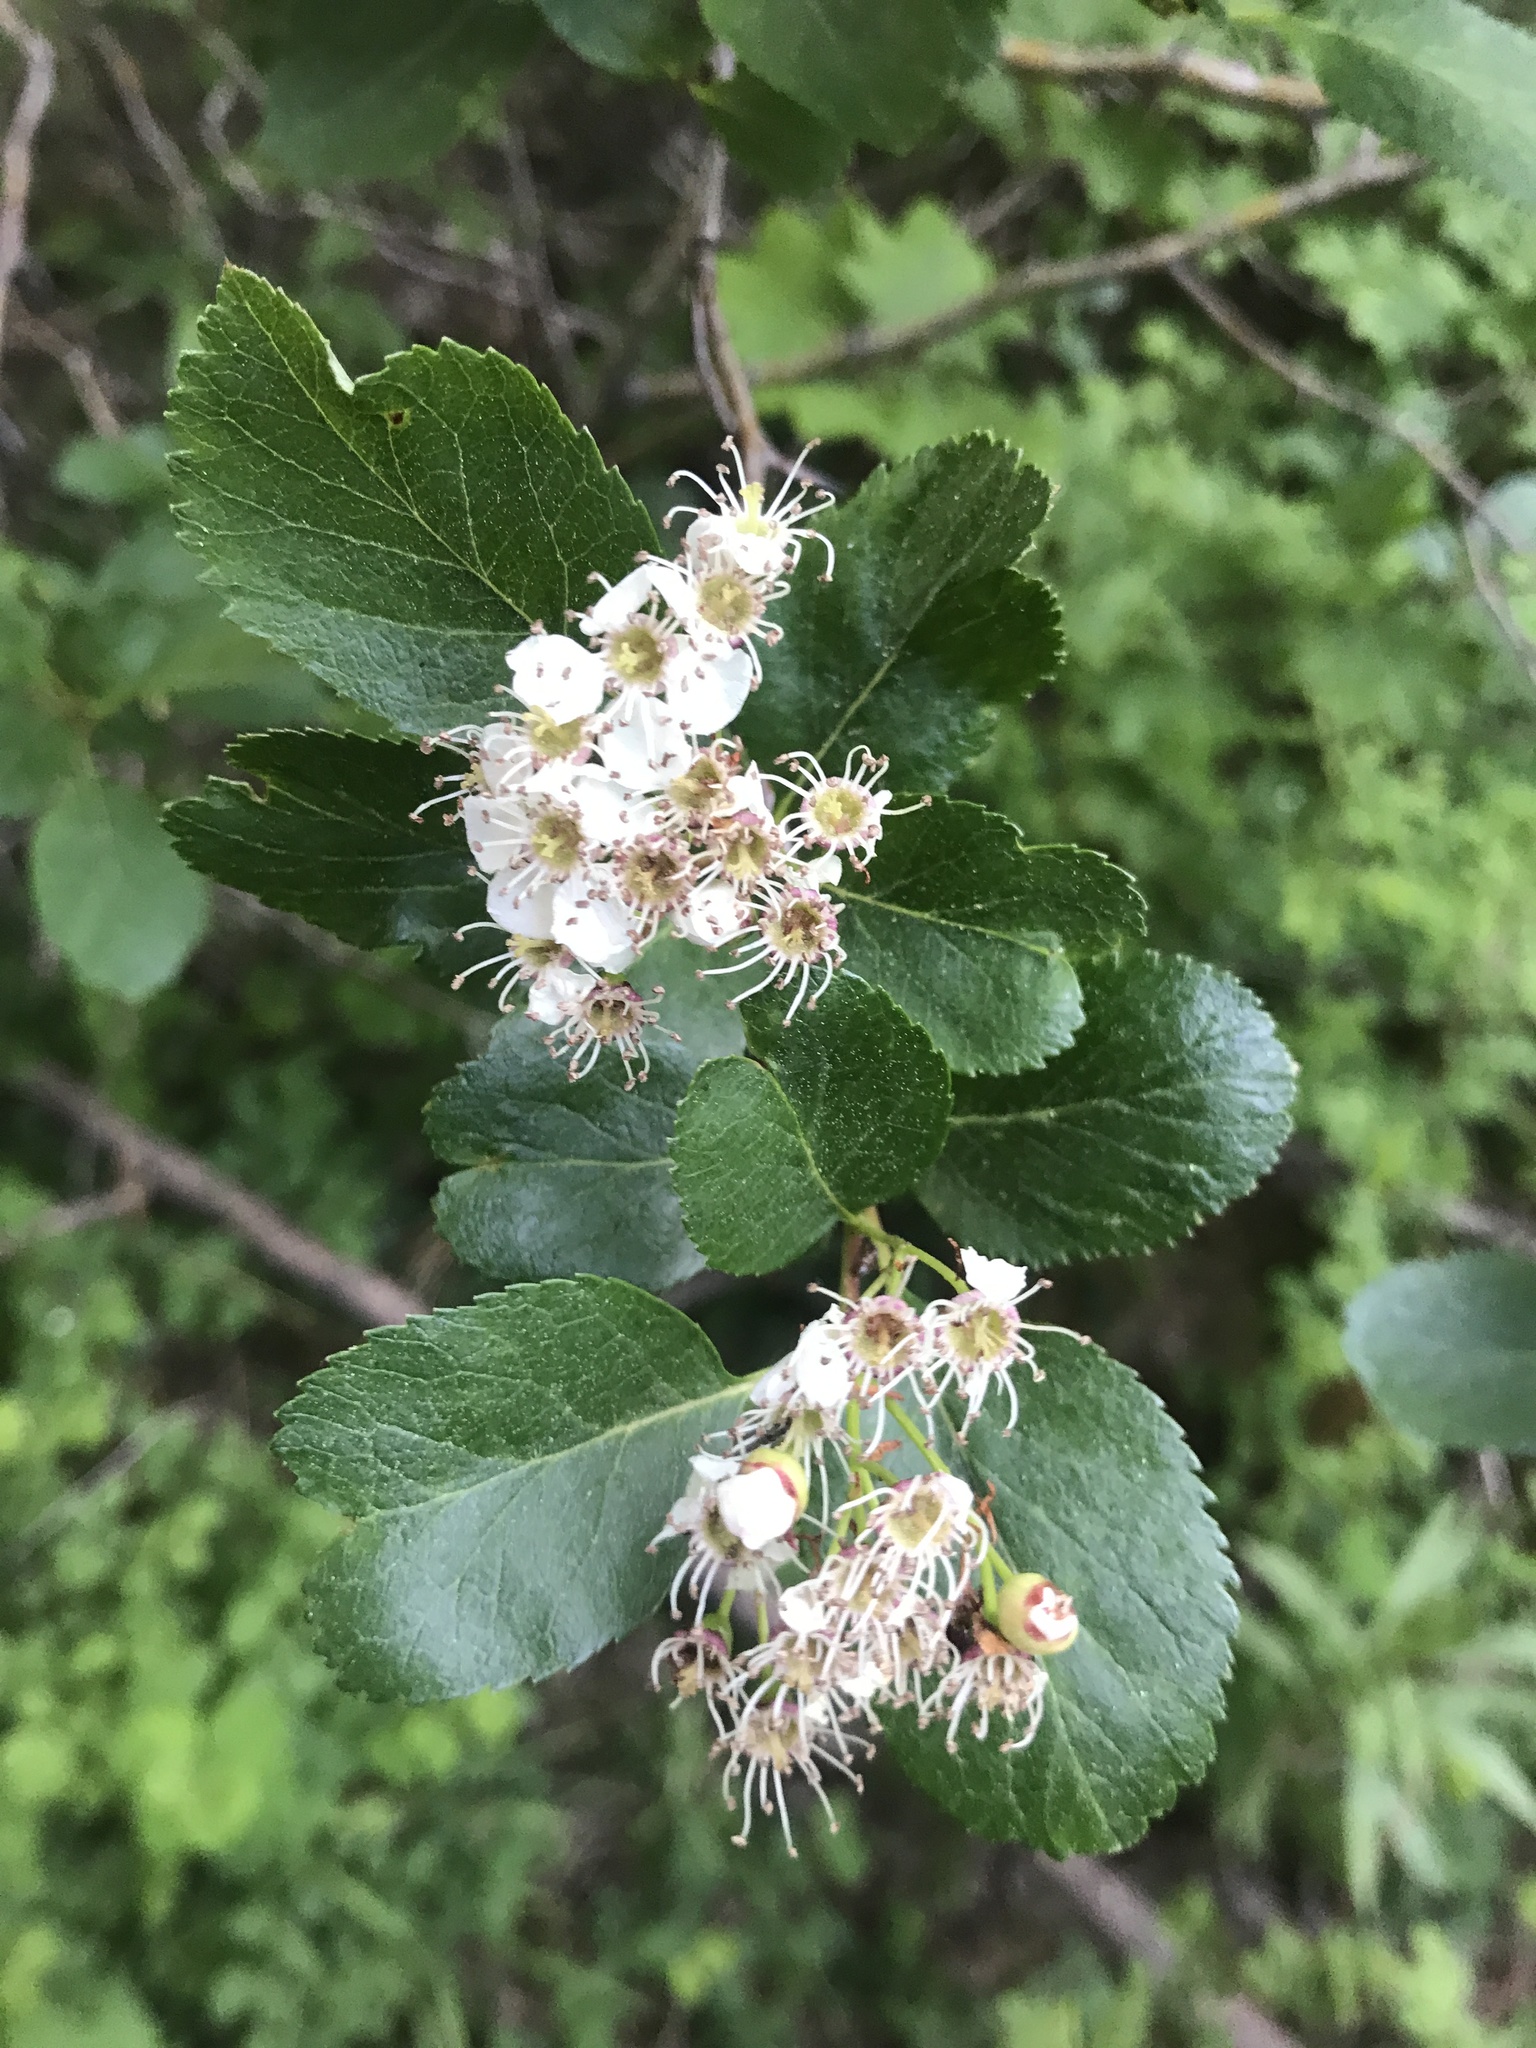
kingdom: Plantae
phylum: Tracheophyta
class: Magnoliopsida
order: Rosales
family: Rosaceae
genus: Crataegus
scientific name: Crataegus douglasii
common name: Black hawthorn
